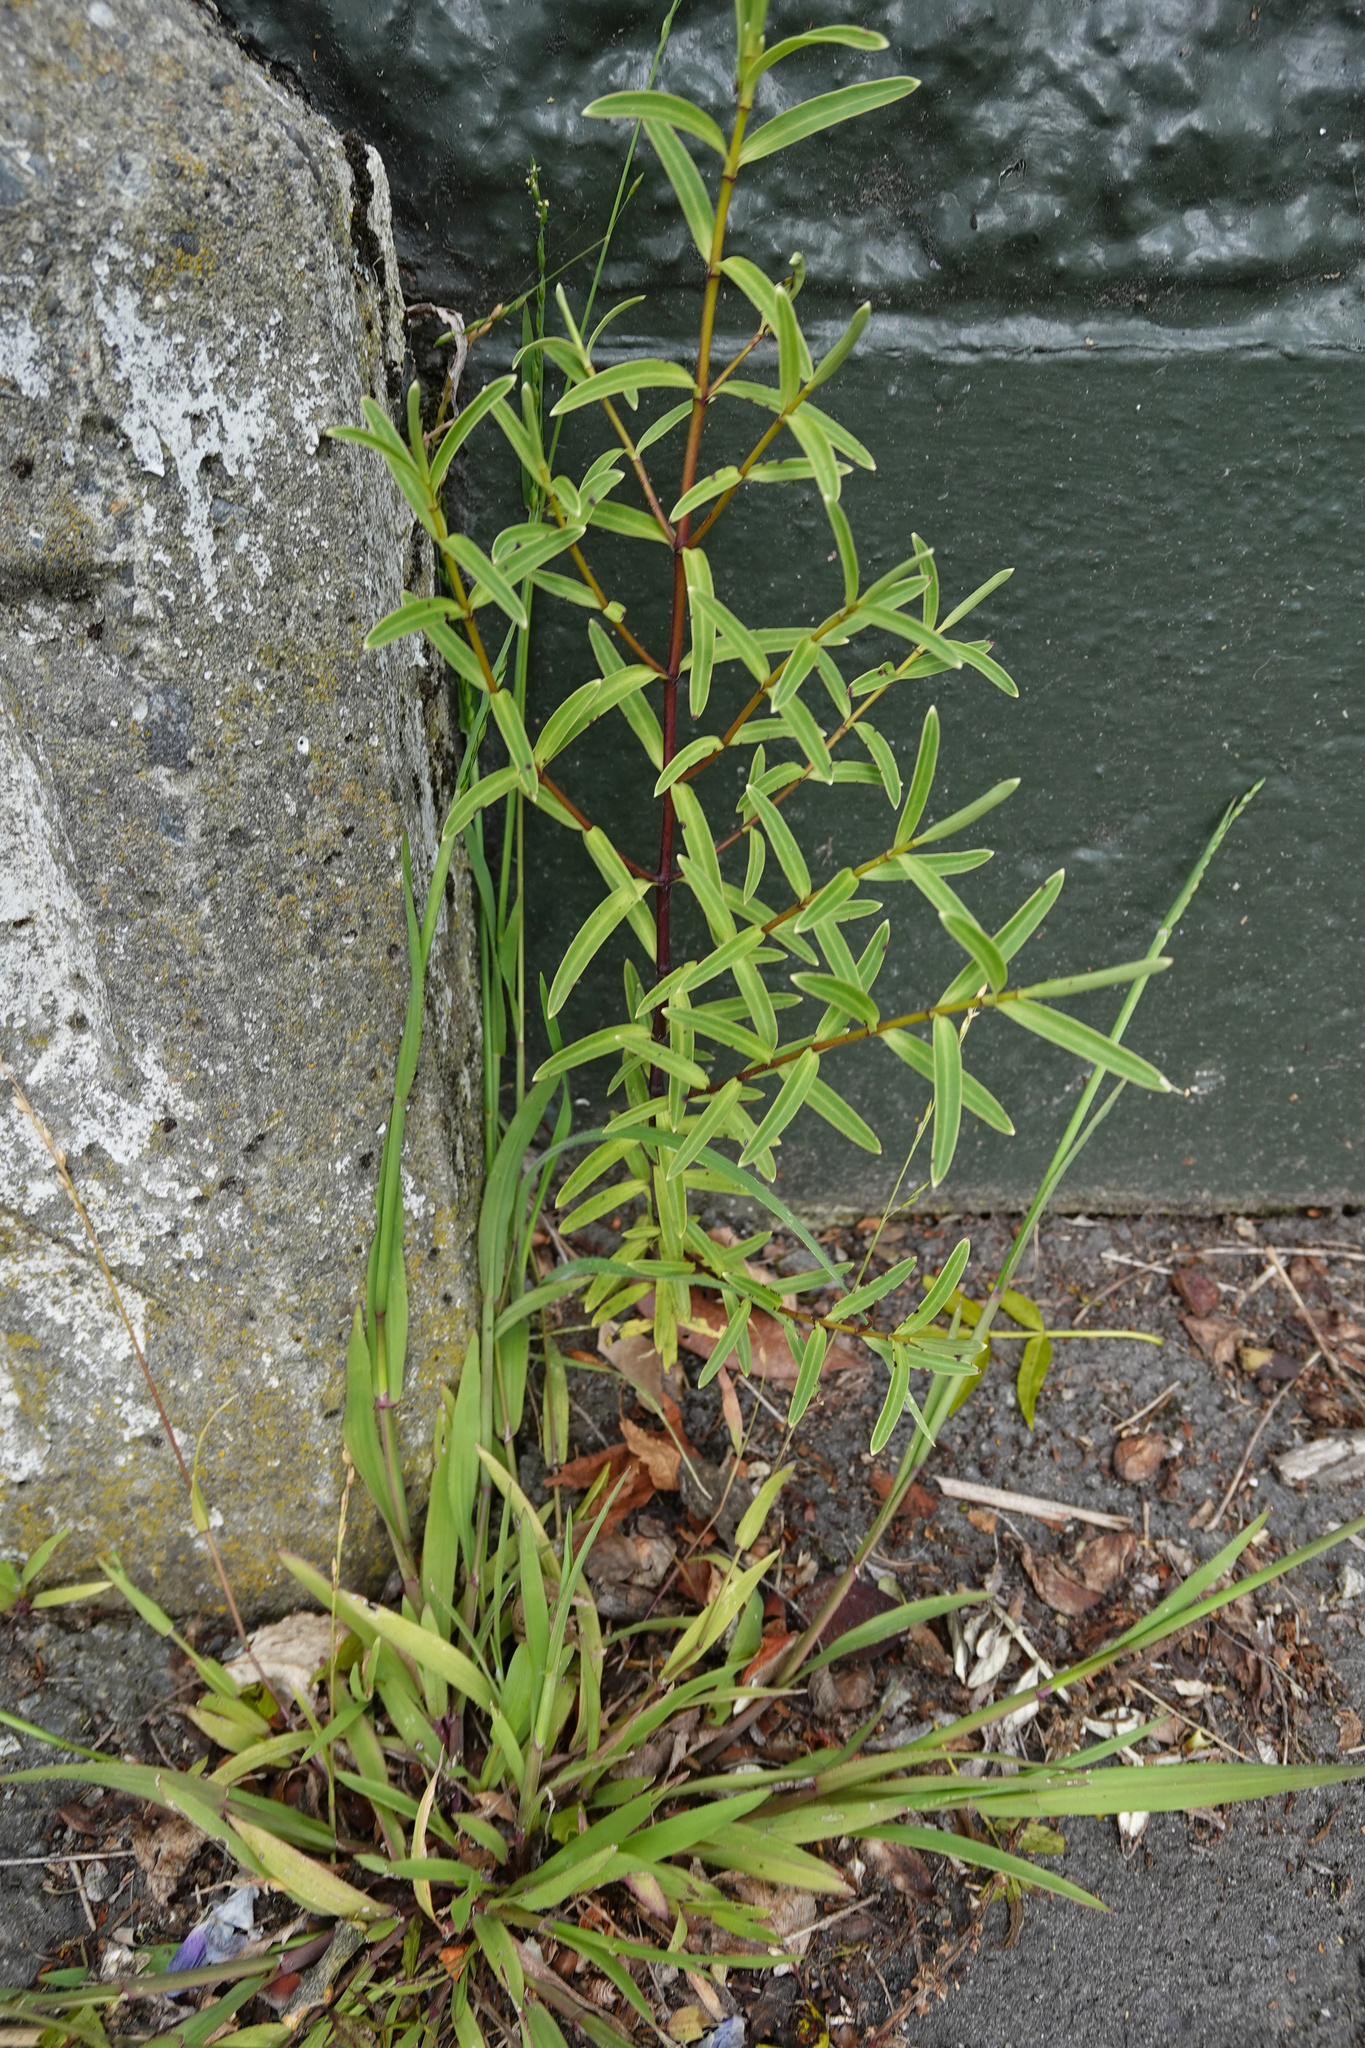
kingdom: Plantae
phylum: Tracheophyta
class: Magnoliopsida
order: Lamiales
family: Plantaginaceae
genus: Veronica
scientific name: Veronica strictissima
